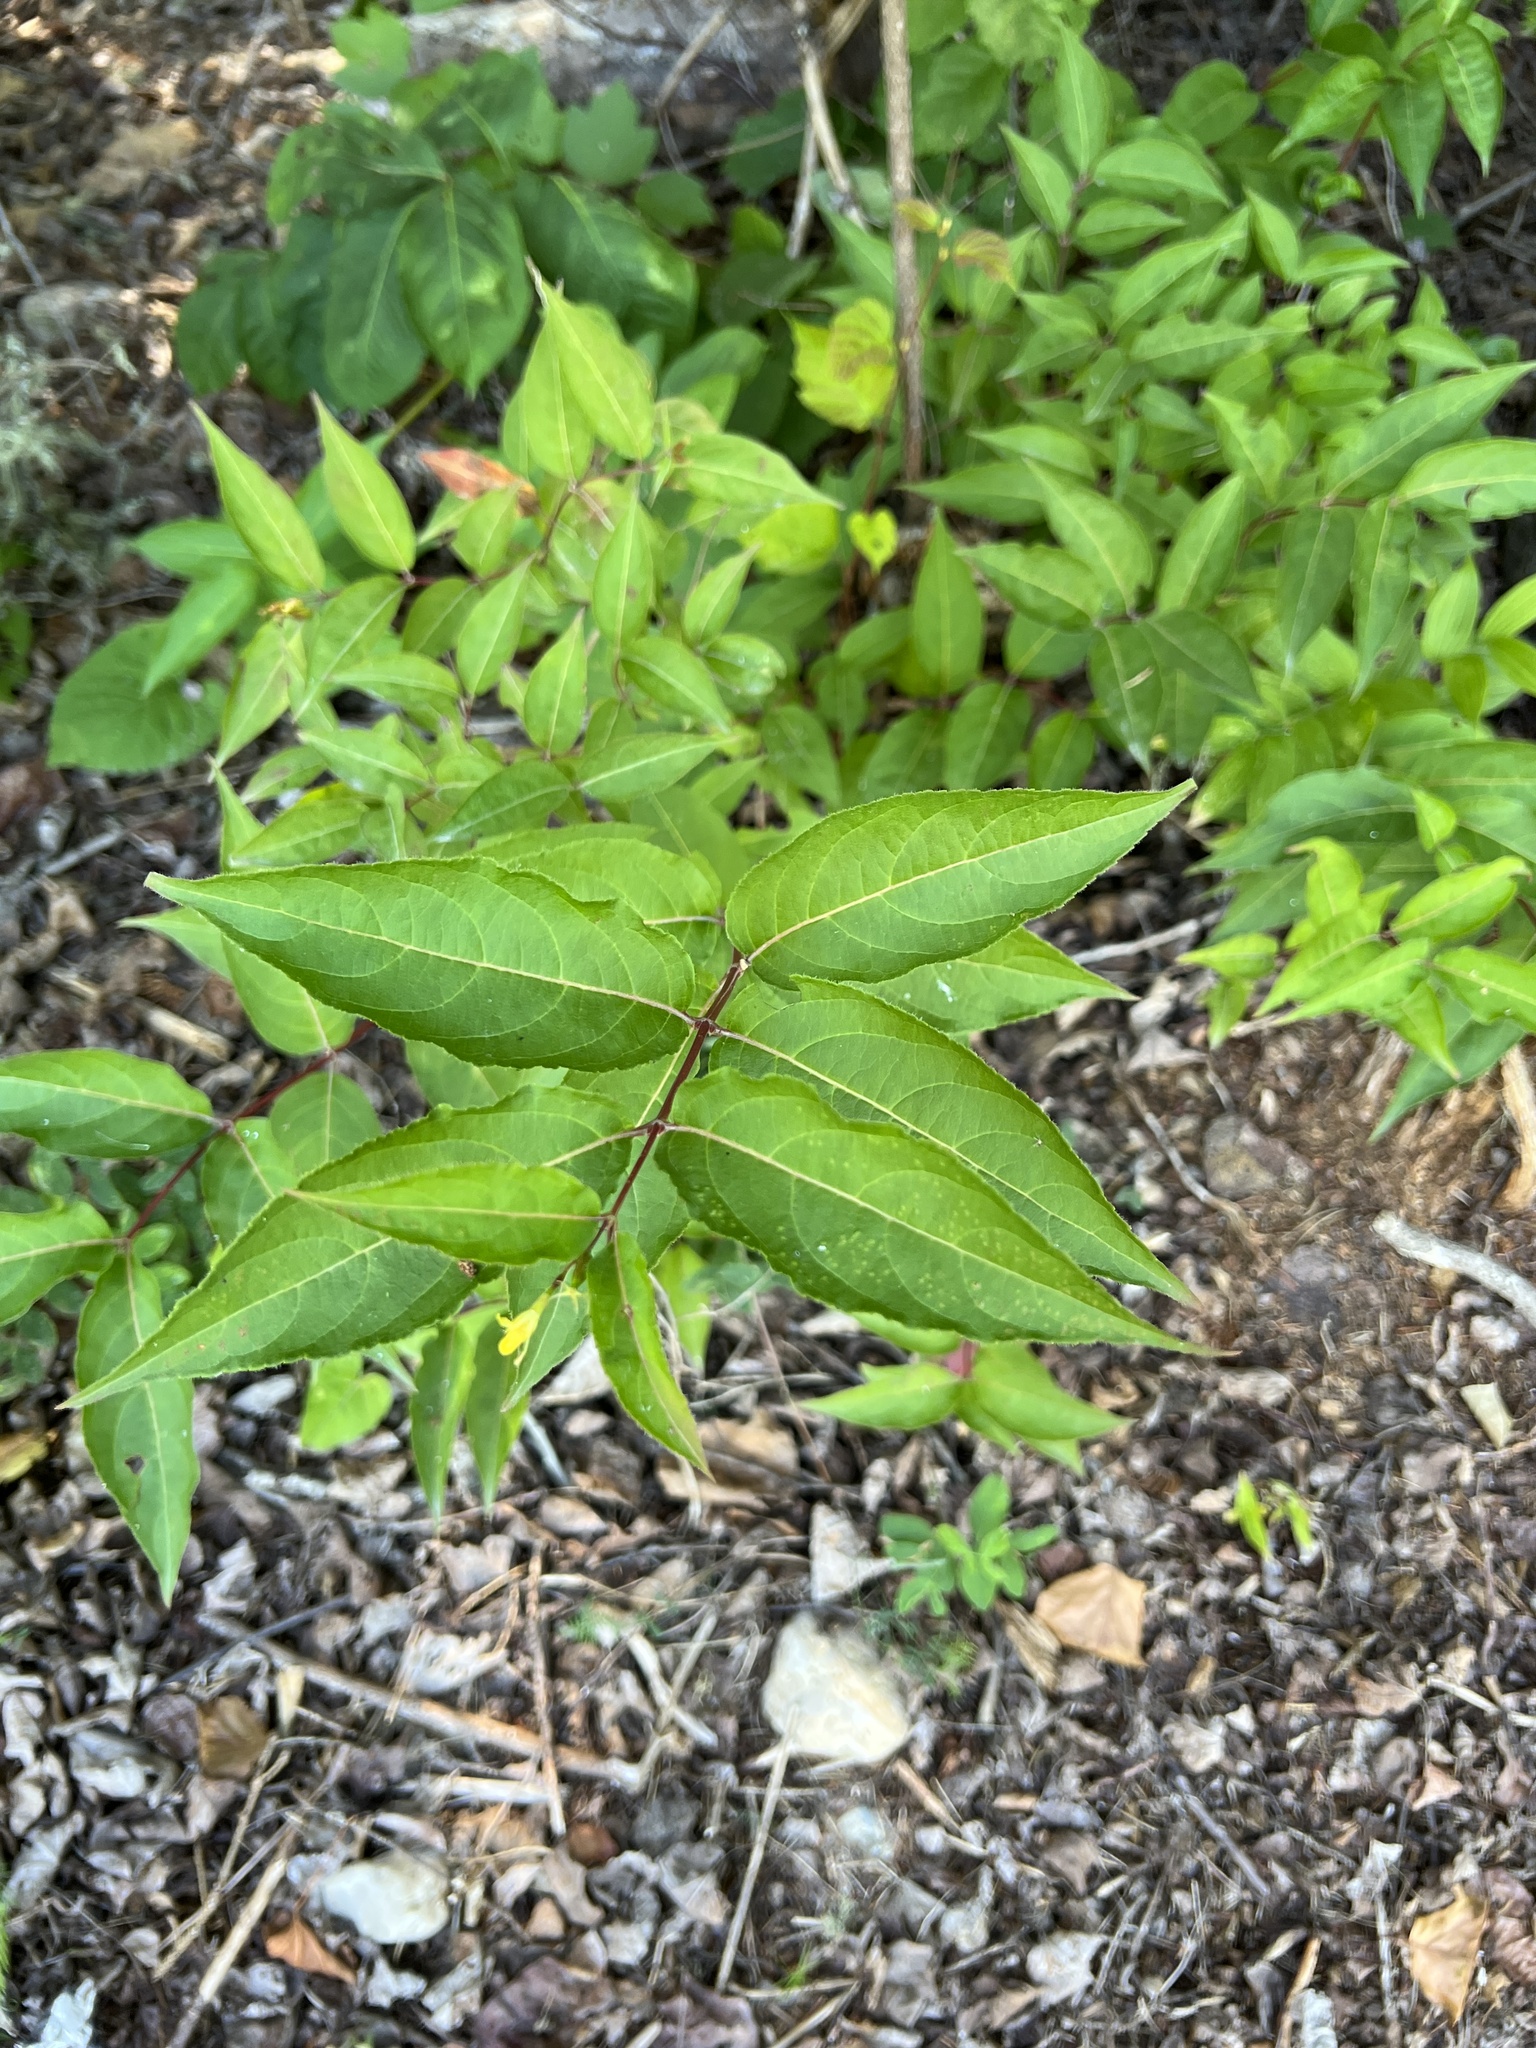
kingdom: Plantae
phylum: Tracheophyta
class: Magnoliopsida
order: Dipsacales
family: Caprifoliaceae
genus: Diervilla
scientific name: Diervilla lonicera
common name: Bush-honeysuckle
